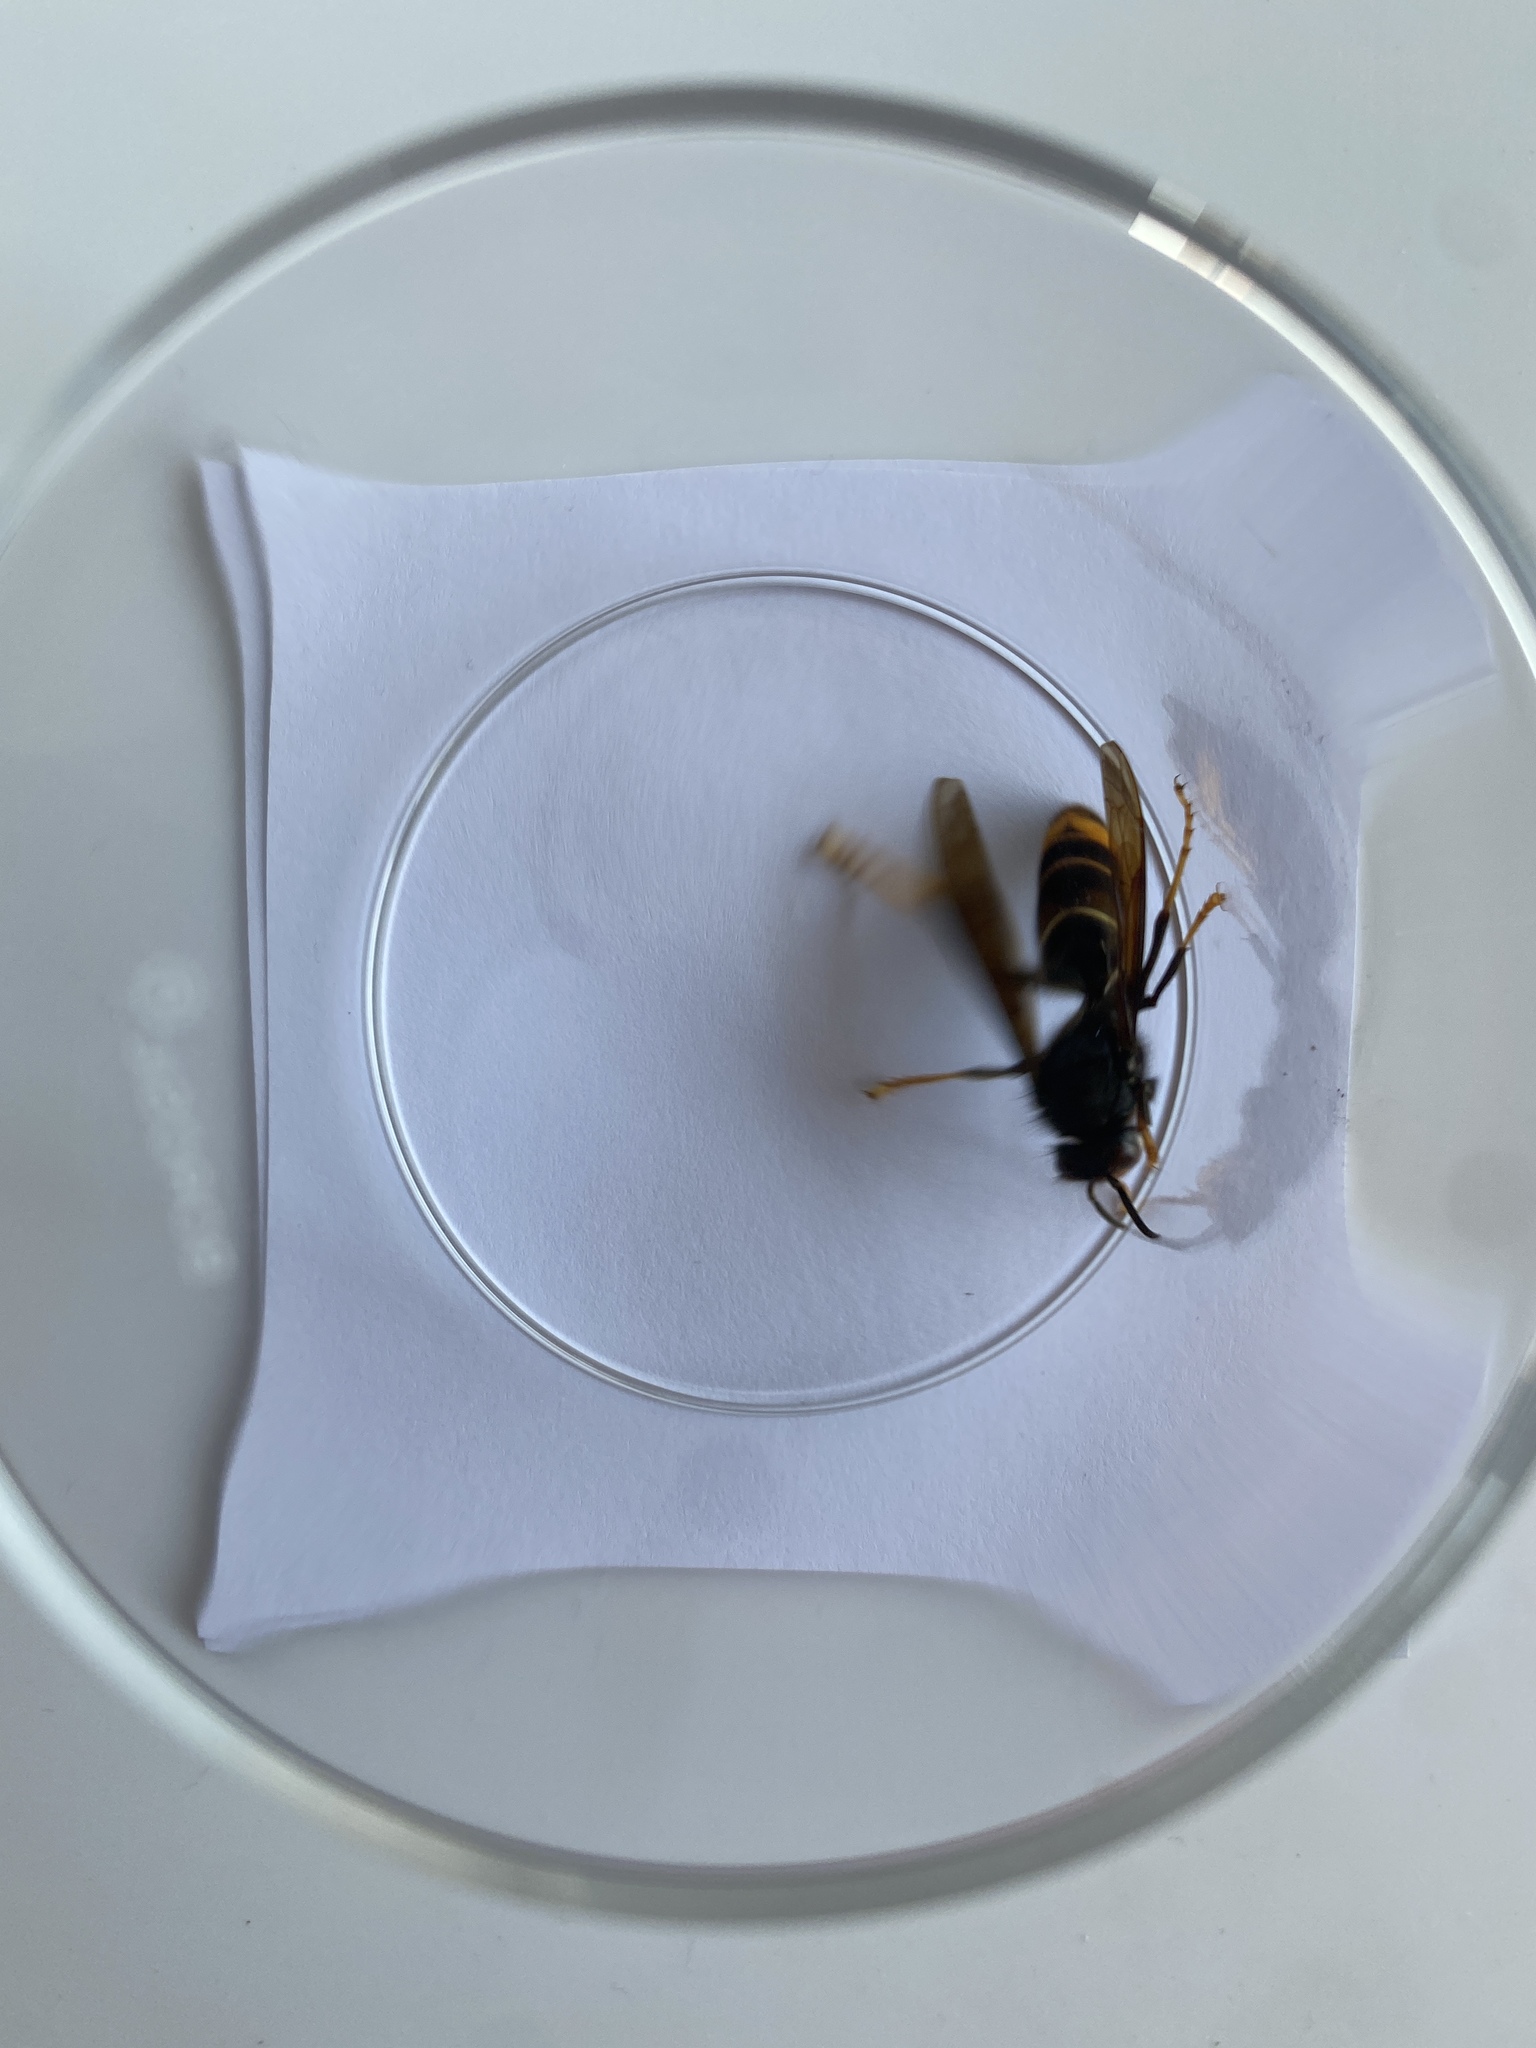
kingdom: Animalia
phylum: Arthropoda
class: Insecta
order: Hymenoptera
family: Vespidae
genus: Vespa
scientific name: Vespa velutina
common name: Asian hornet
